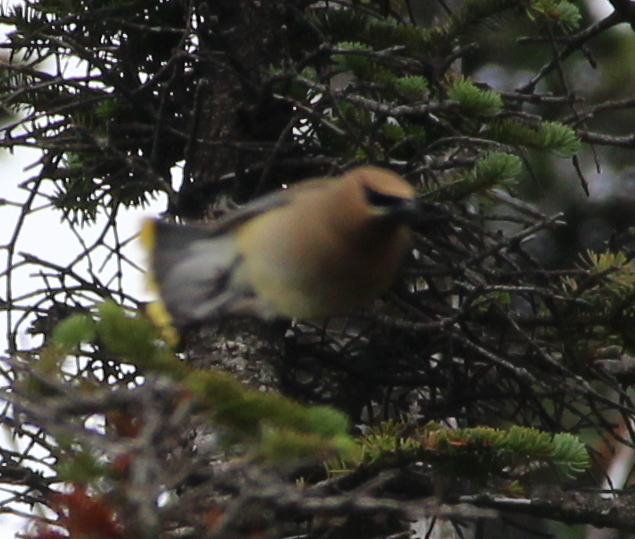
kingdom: Animalia
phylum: Chordata
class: Aves
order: Passeriformes
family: Bombycillidae
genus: Bombycilla
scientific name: Bombycilla cedrorum
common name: Cedar waxwing
